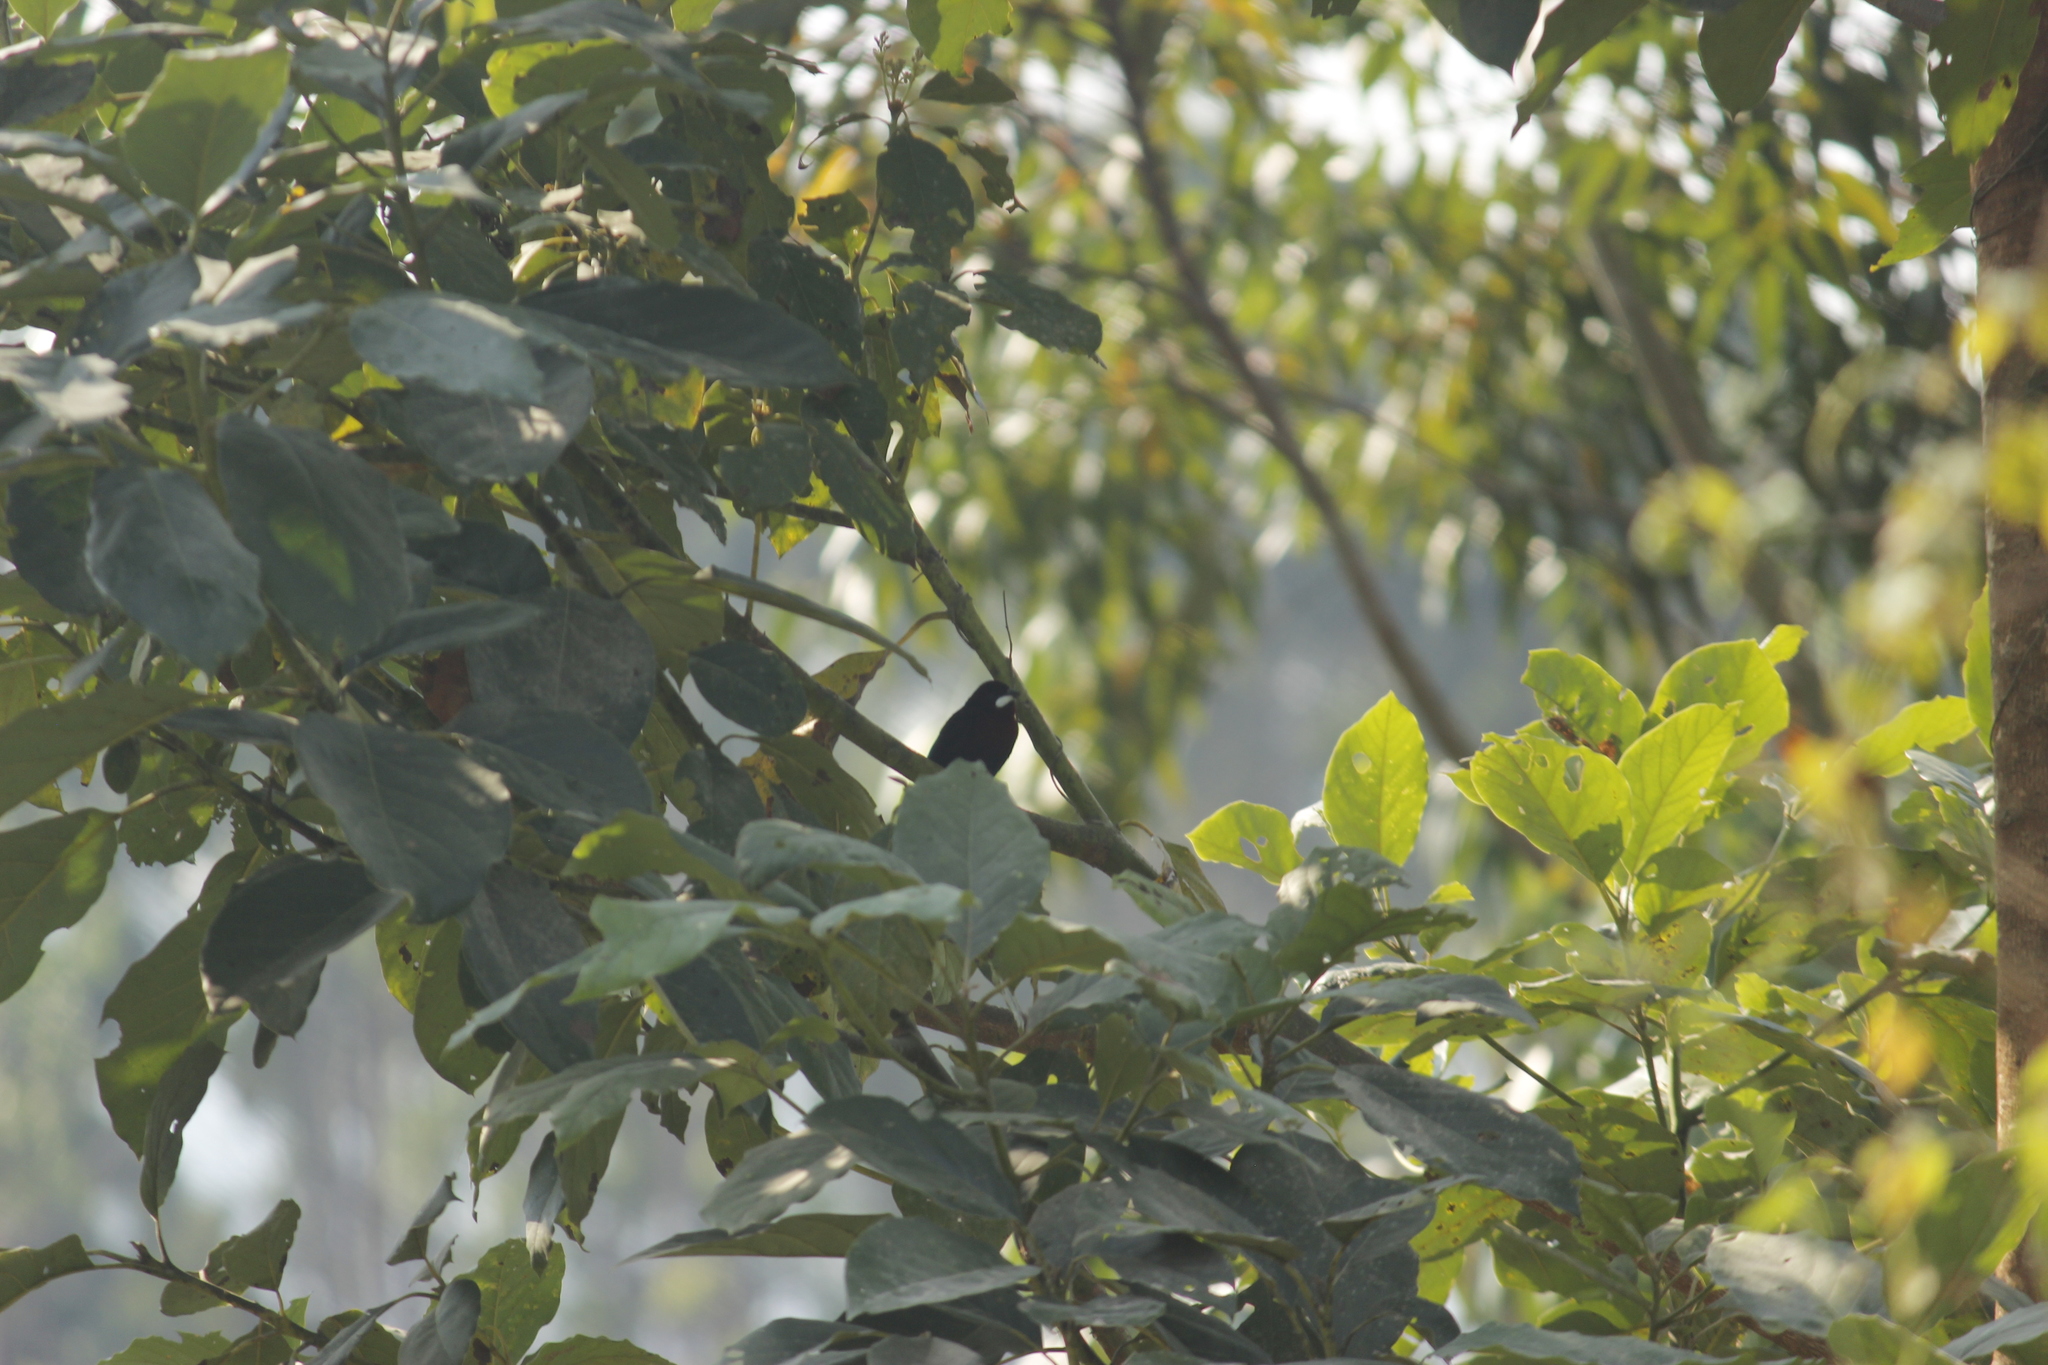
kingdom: Animalia
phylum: Chordata
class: Aves
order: Passeriformes
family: Thraupidae
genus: Ramphocelus
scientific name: Ramphocelus carbo
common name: Silver-beaked tanager
